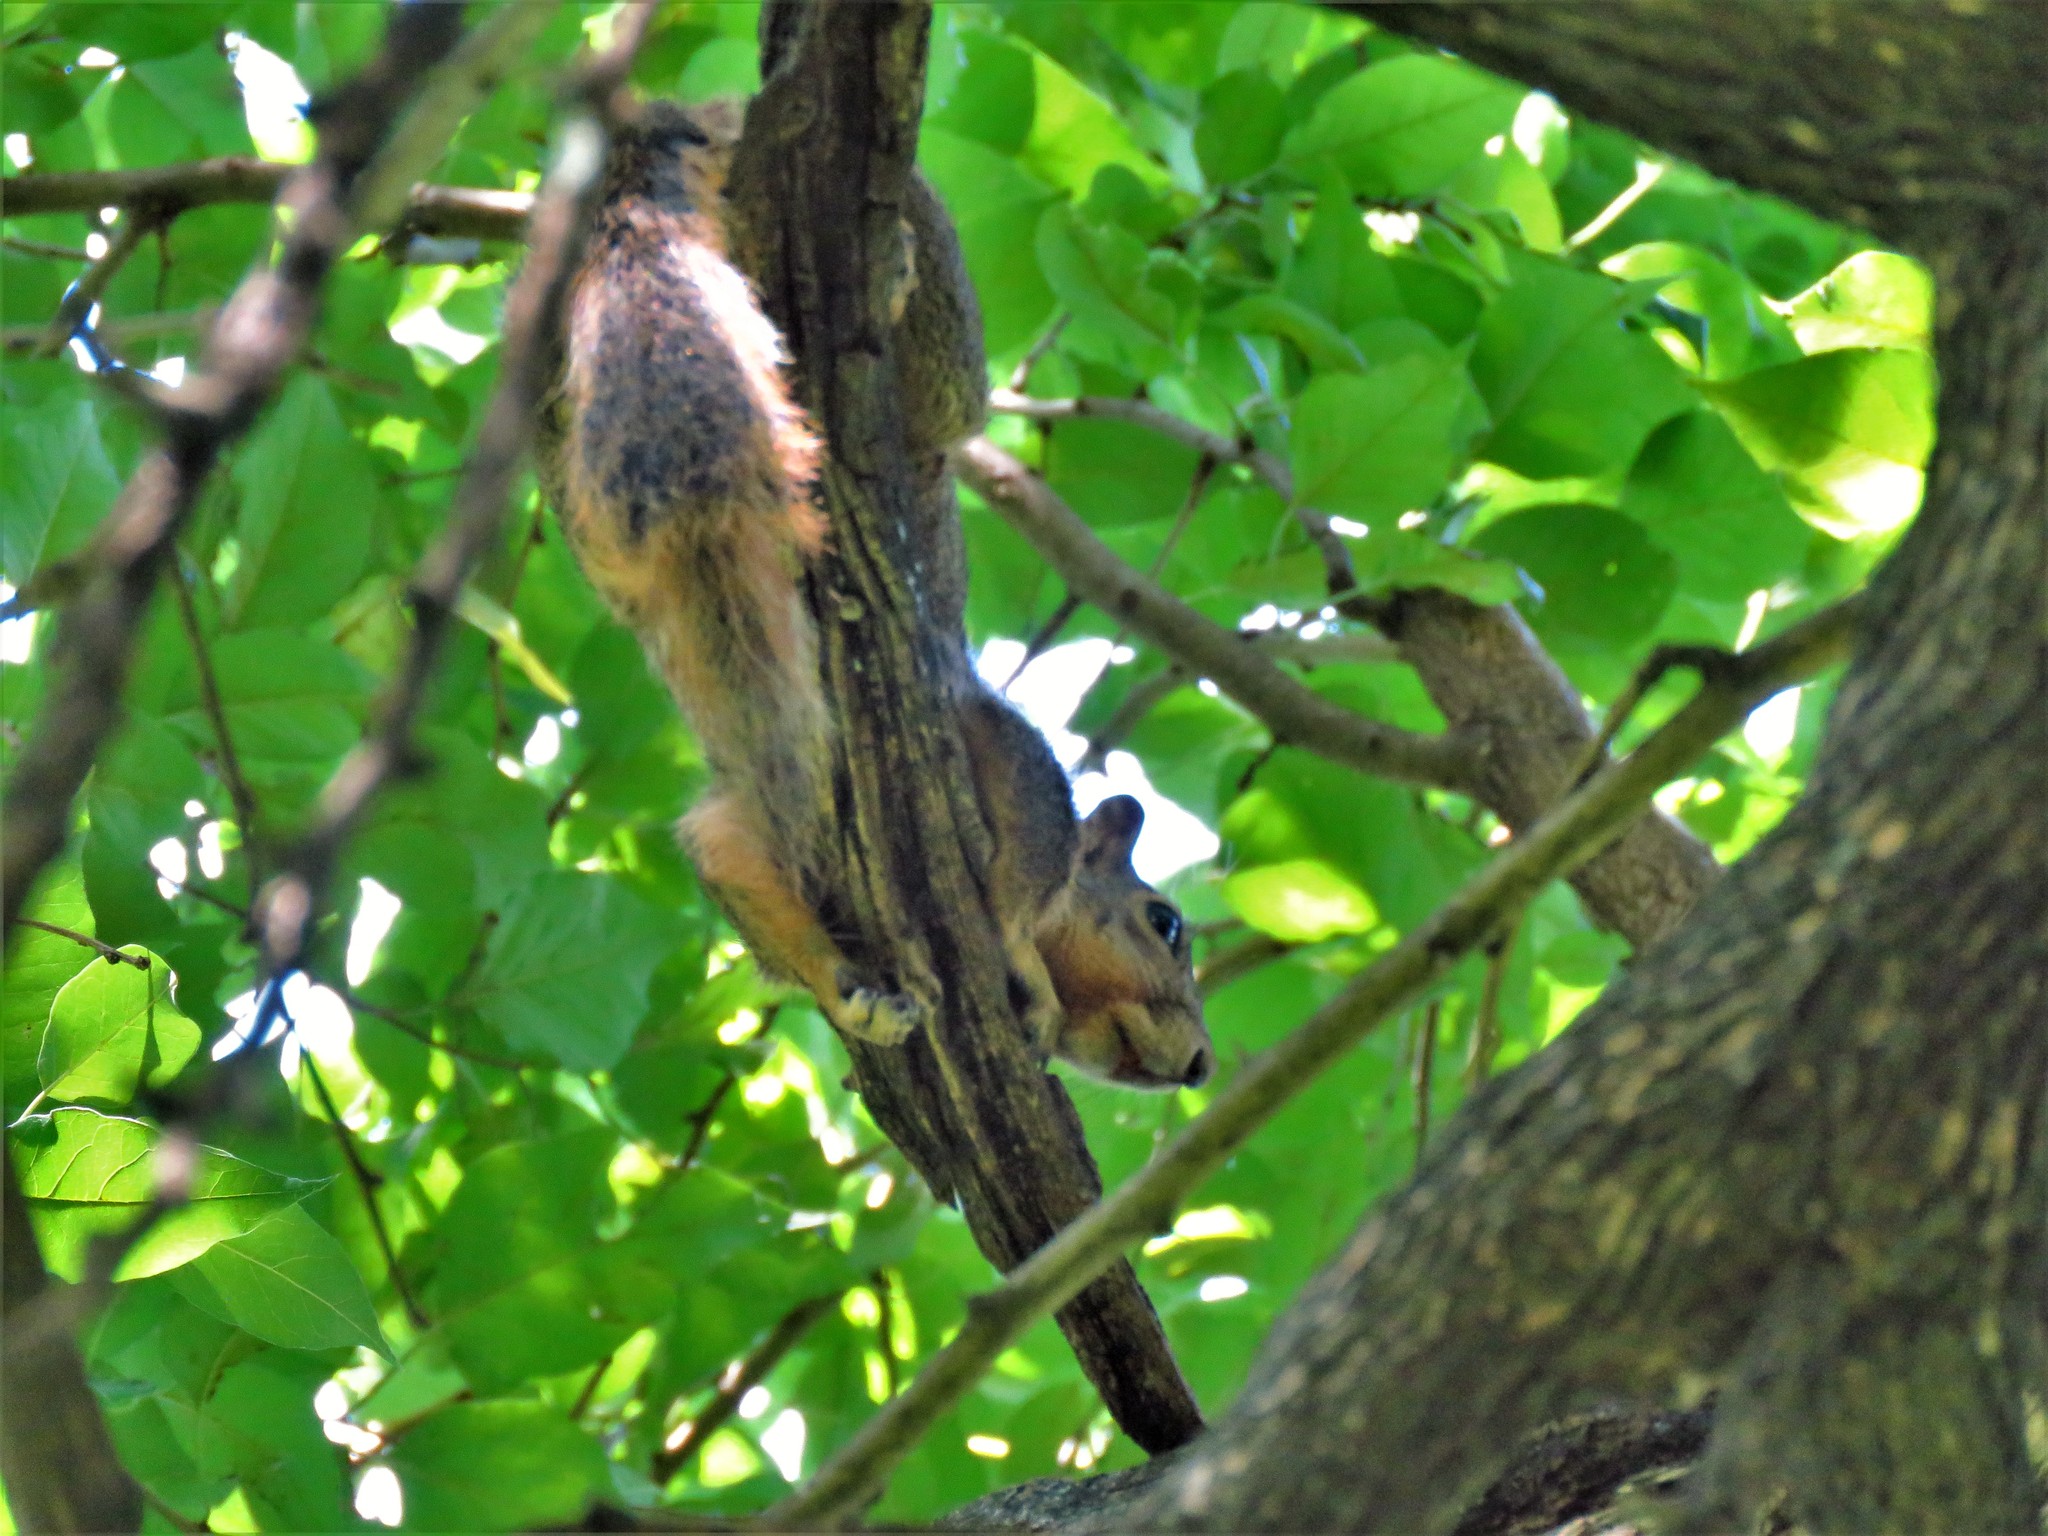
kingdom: Animalia
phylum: Chordata
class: Mammalia
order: Rodentia
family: Sciuridae
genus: Sciurus
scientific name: Sciurus niger
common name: Fox squirrel
